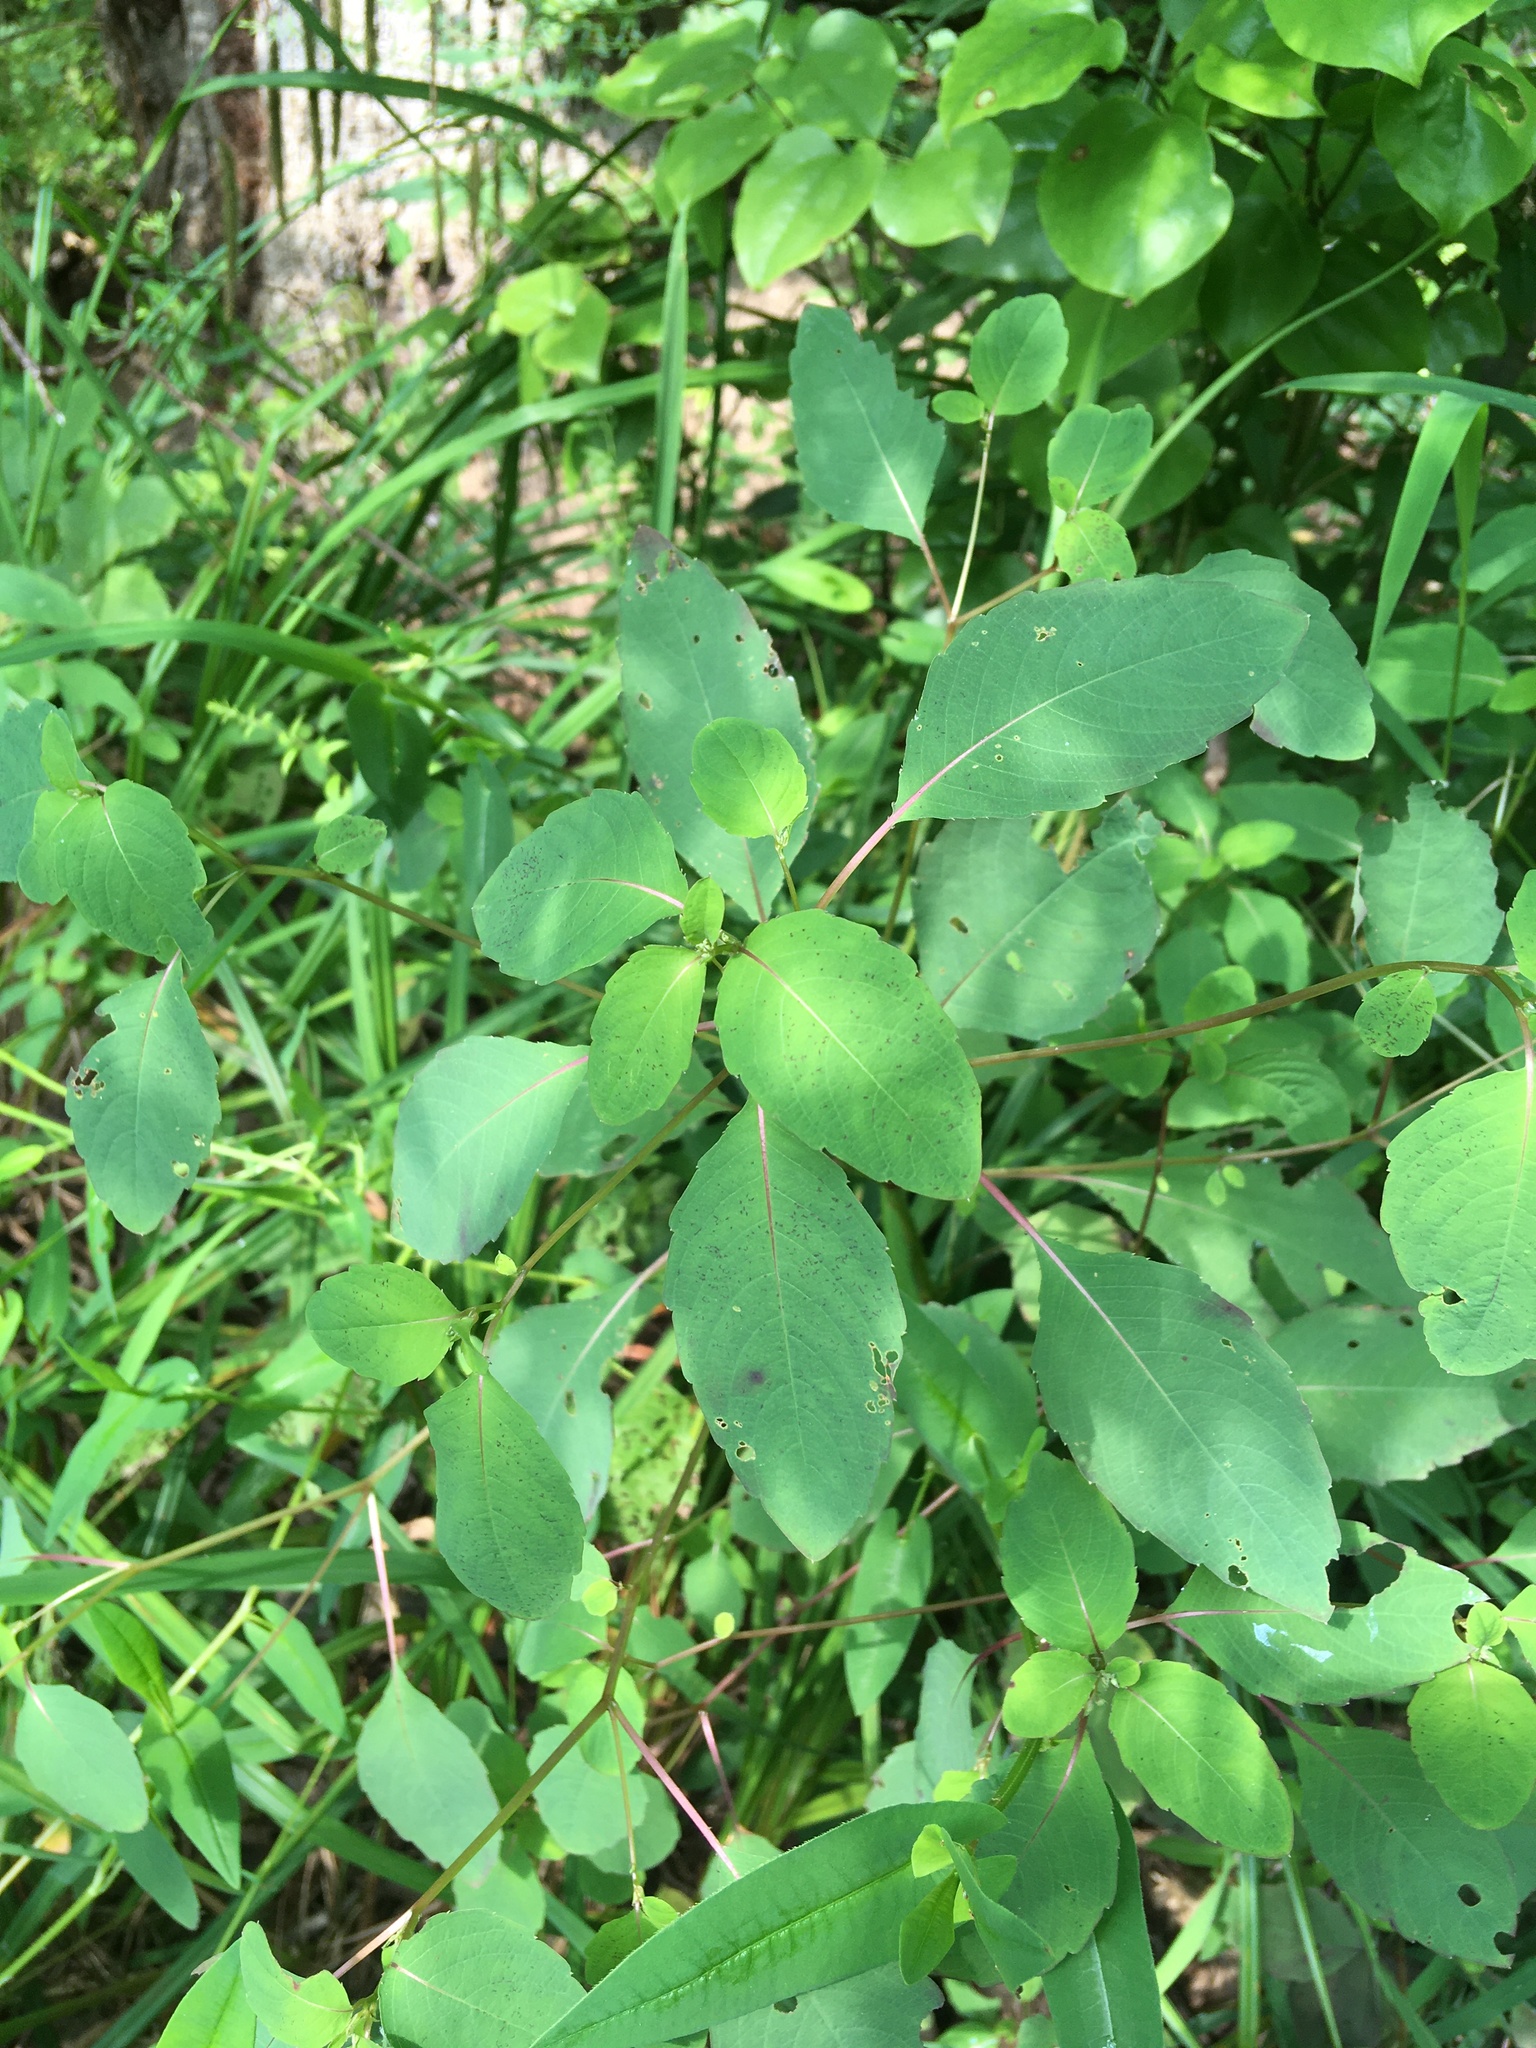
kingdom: Plantae
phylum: Tracheophyta
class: Magnoliopsida
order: Ericales
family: Balsaminaceae
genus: Impatiens
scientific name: Impatiens capensis
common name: Orange balsam
